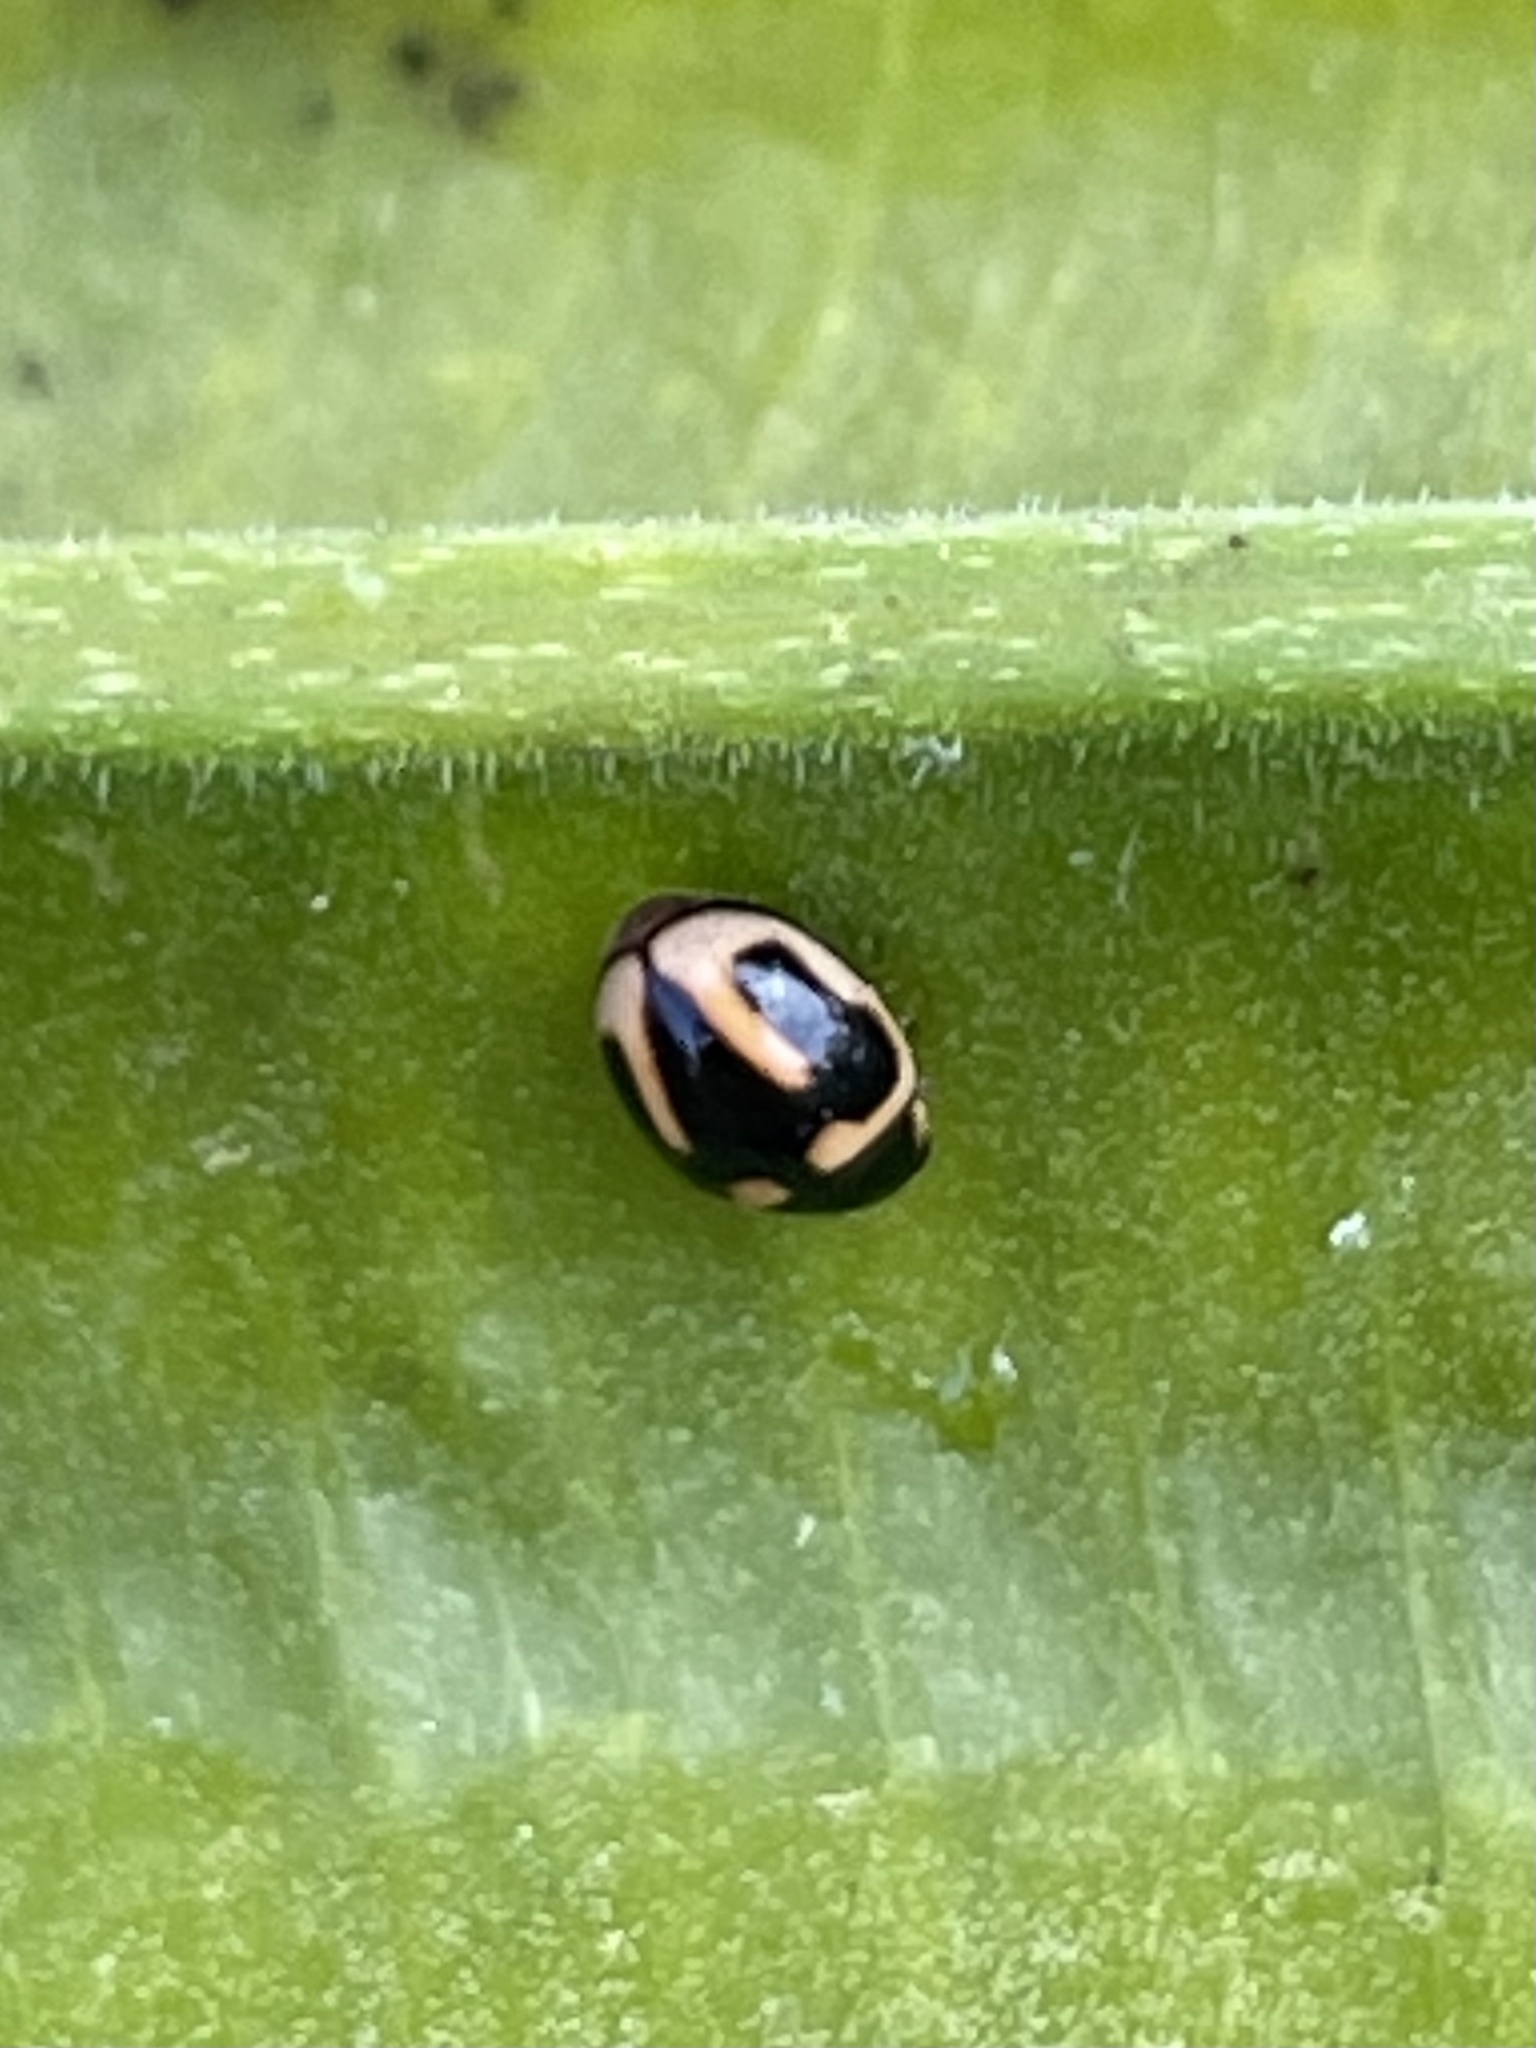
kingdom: Animalia
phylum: Arthropoda
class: Insecta
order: Coleoptera
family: Coccinellidae
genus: Hyperaspis
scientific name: Hyperaspis trifurcata
